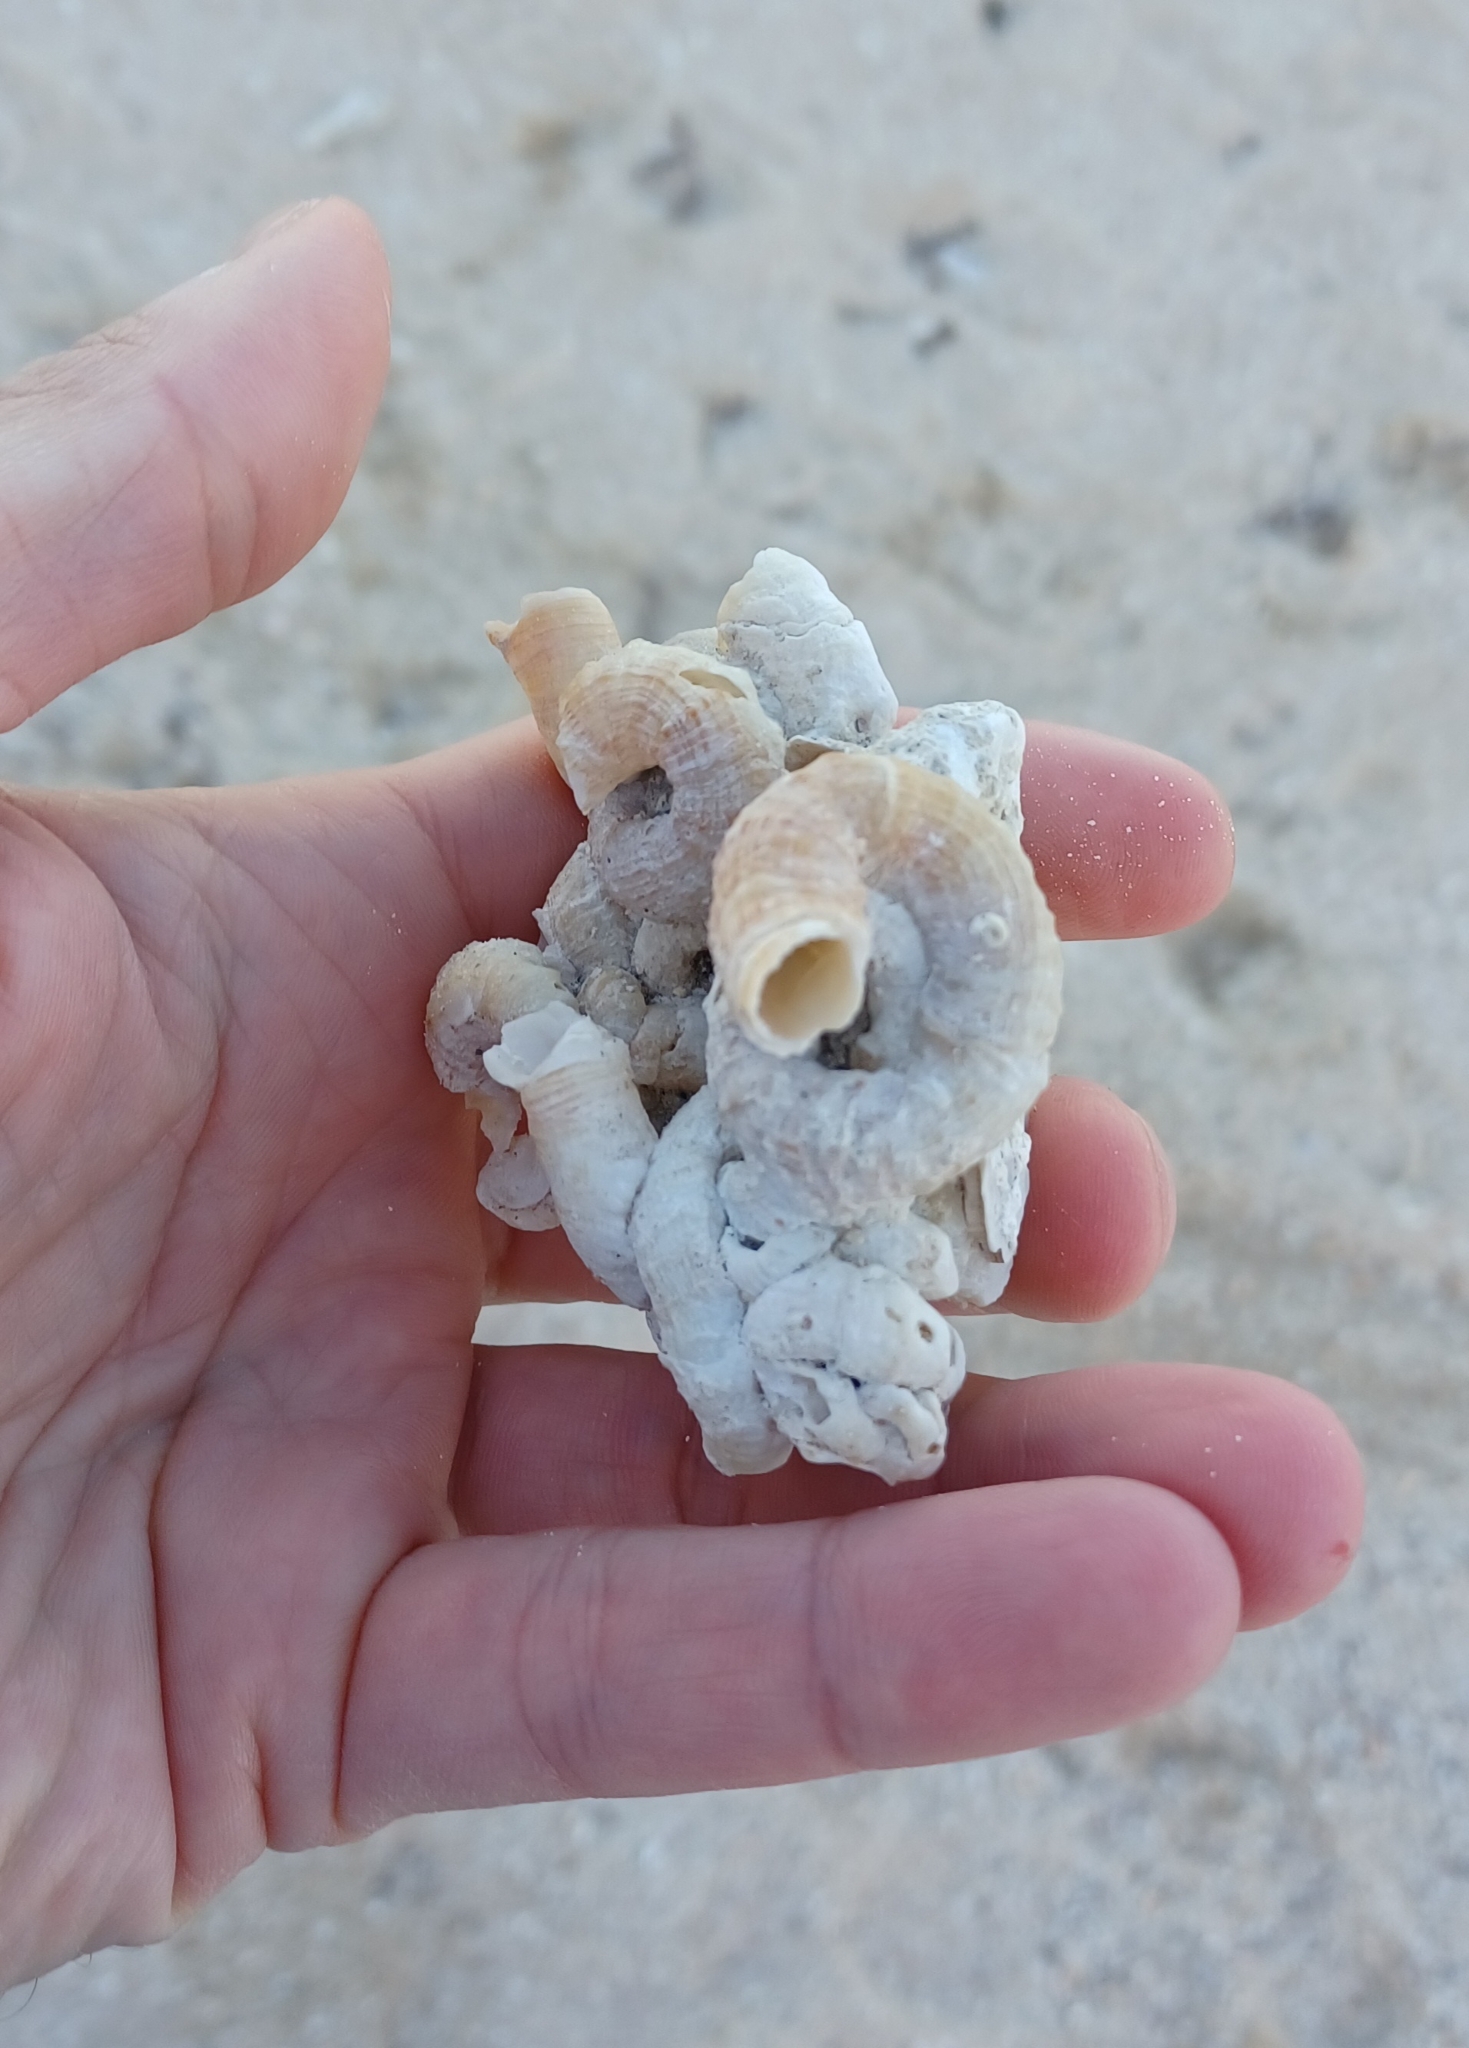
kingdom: Animalia
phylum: Mollusca
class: Gastropoda
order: Littorinimorpha
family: Vermetidae
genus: Thylacodes
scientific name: Thylacodes sipho
